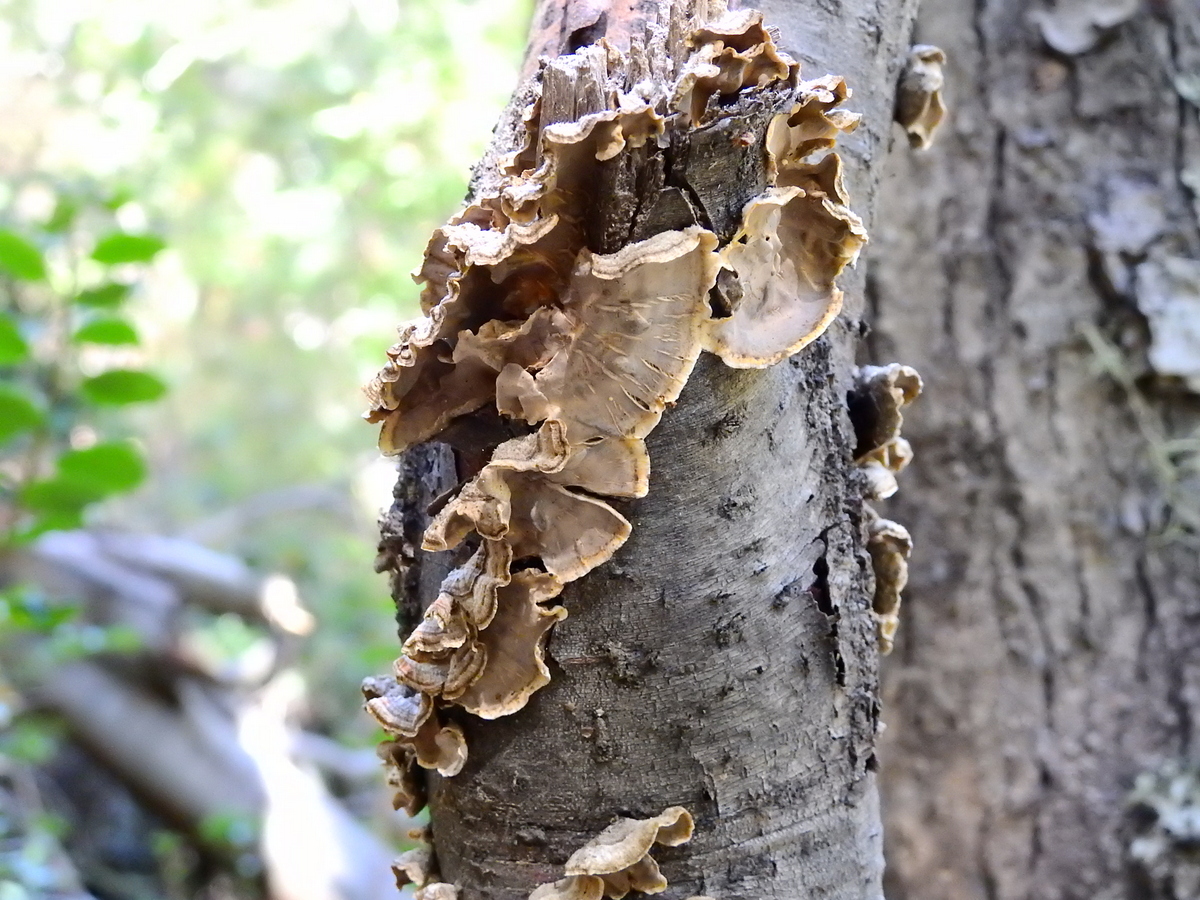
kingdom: Fungi
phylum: Basidiomycota
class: Agaricomycetes
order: Russulales
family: Stereaceae
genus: Stereum
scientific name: Stereum hirsutum
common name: Hairy curtain crust
